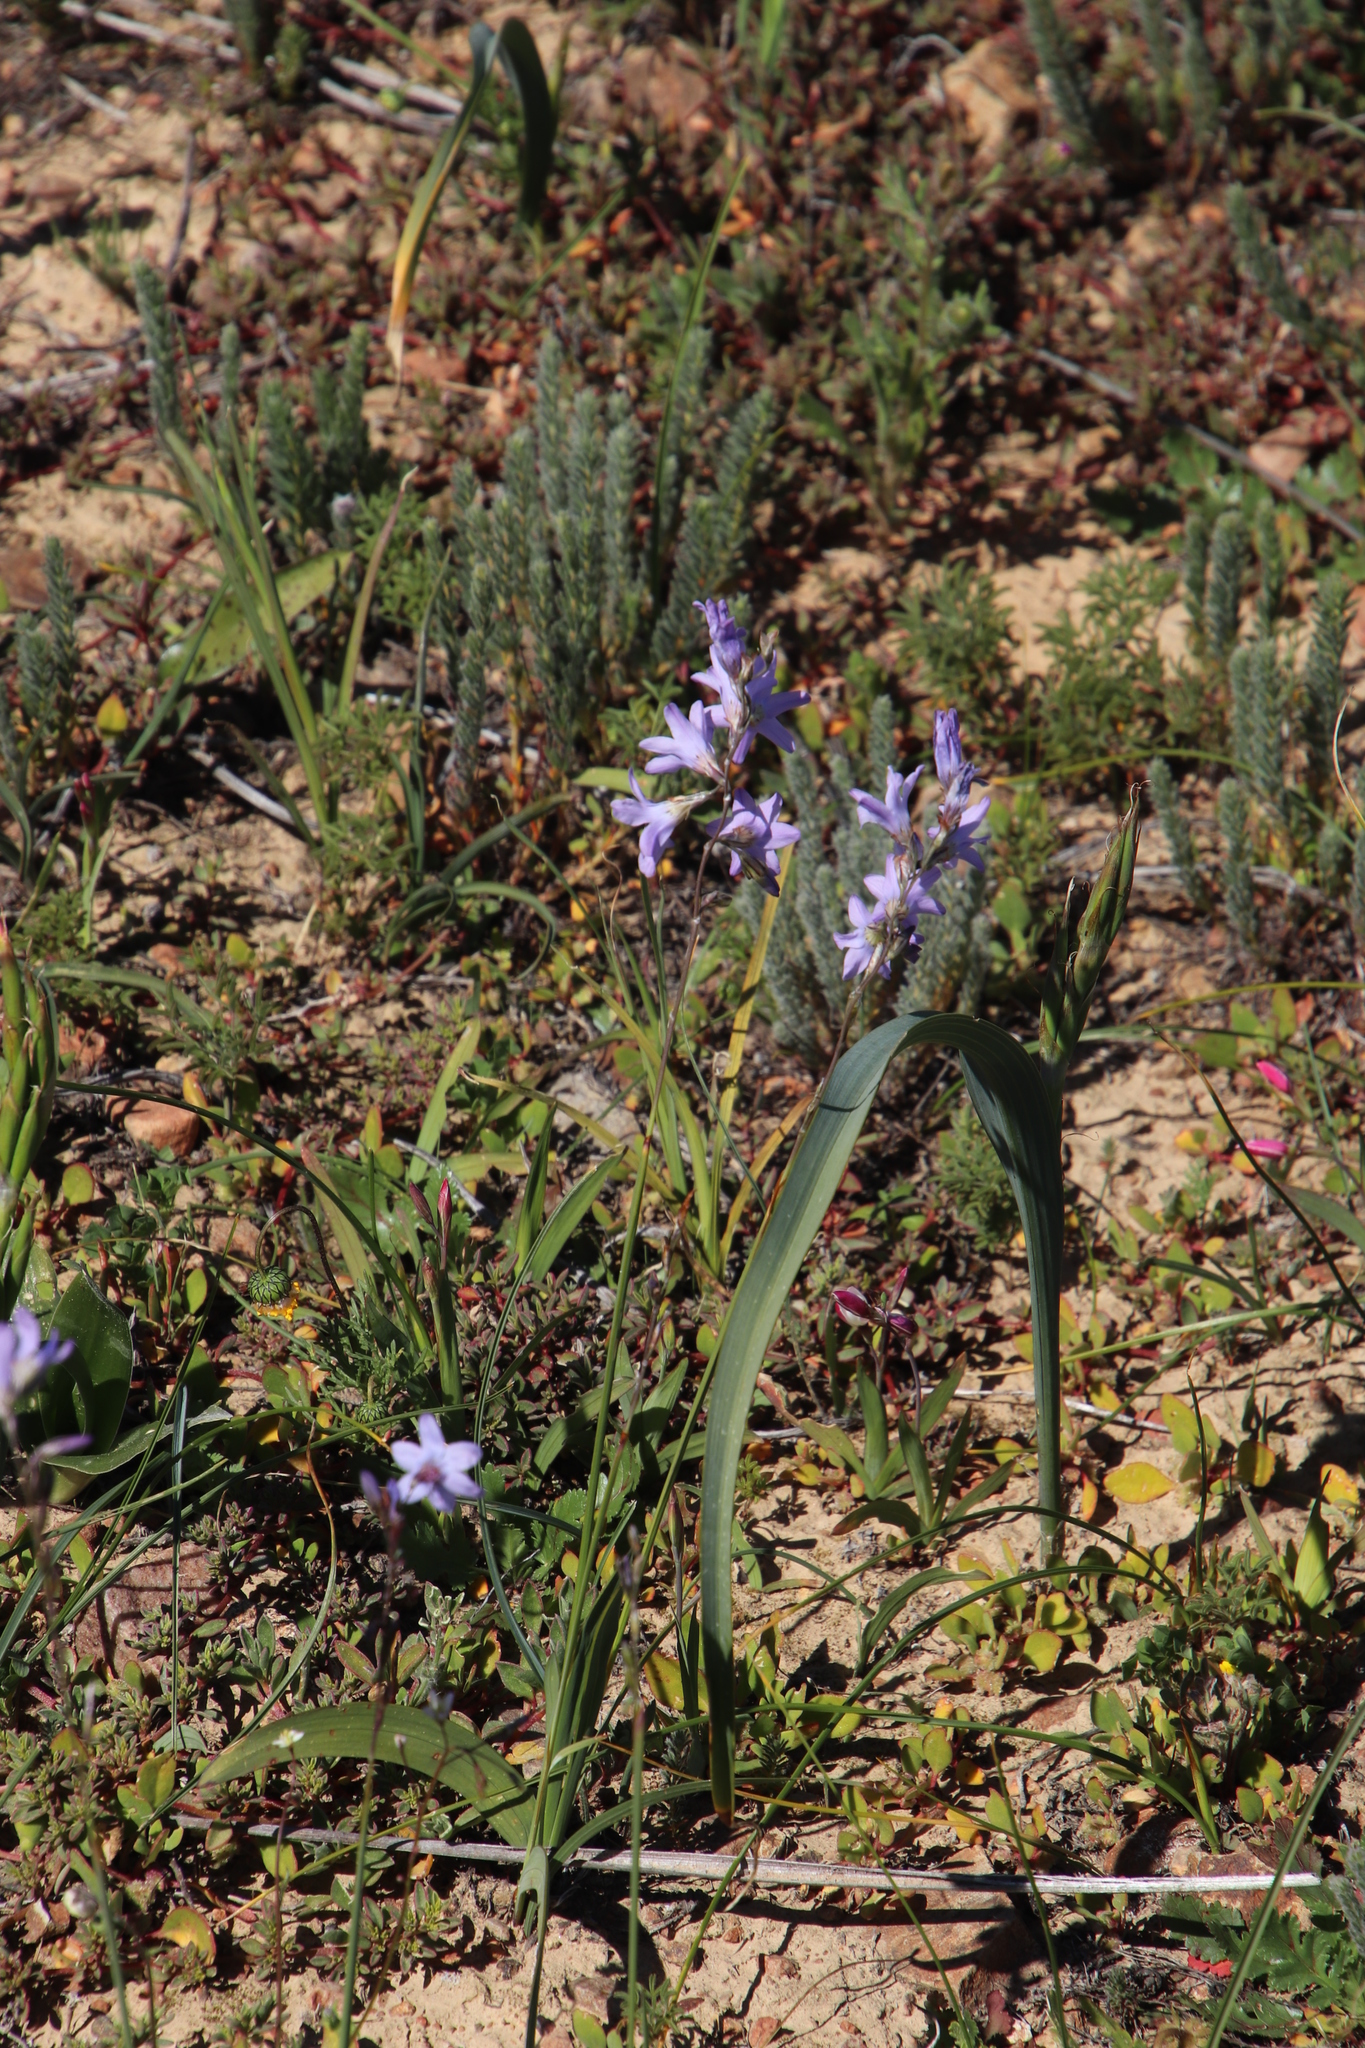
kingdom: Plantae
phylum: Tracheophyta
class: Liliopsida
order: Asparagales
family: Iridaceae
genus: Ixia
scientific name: Ixia rapunculoides
